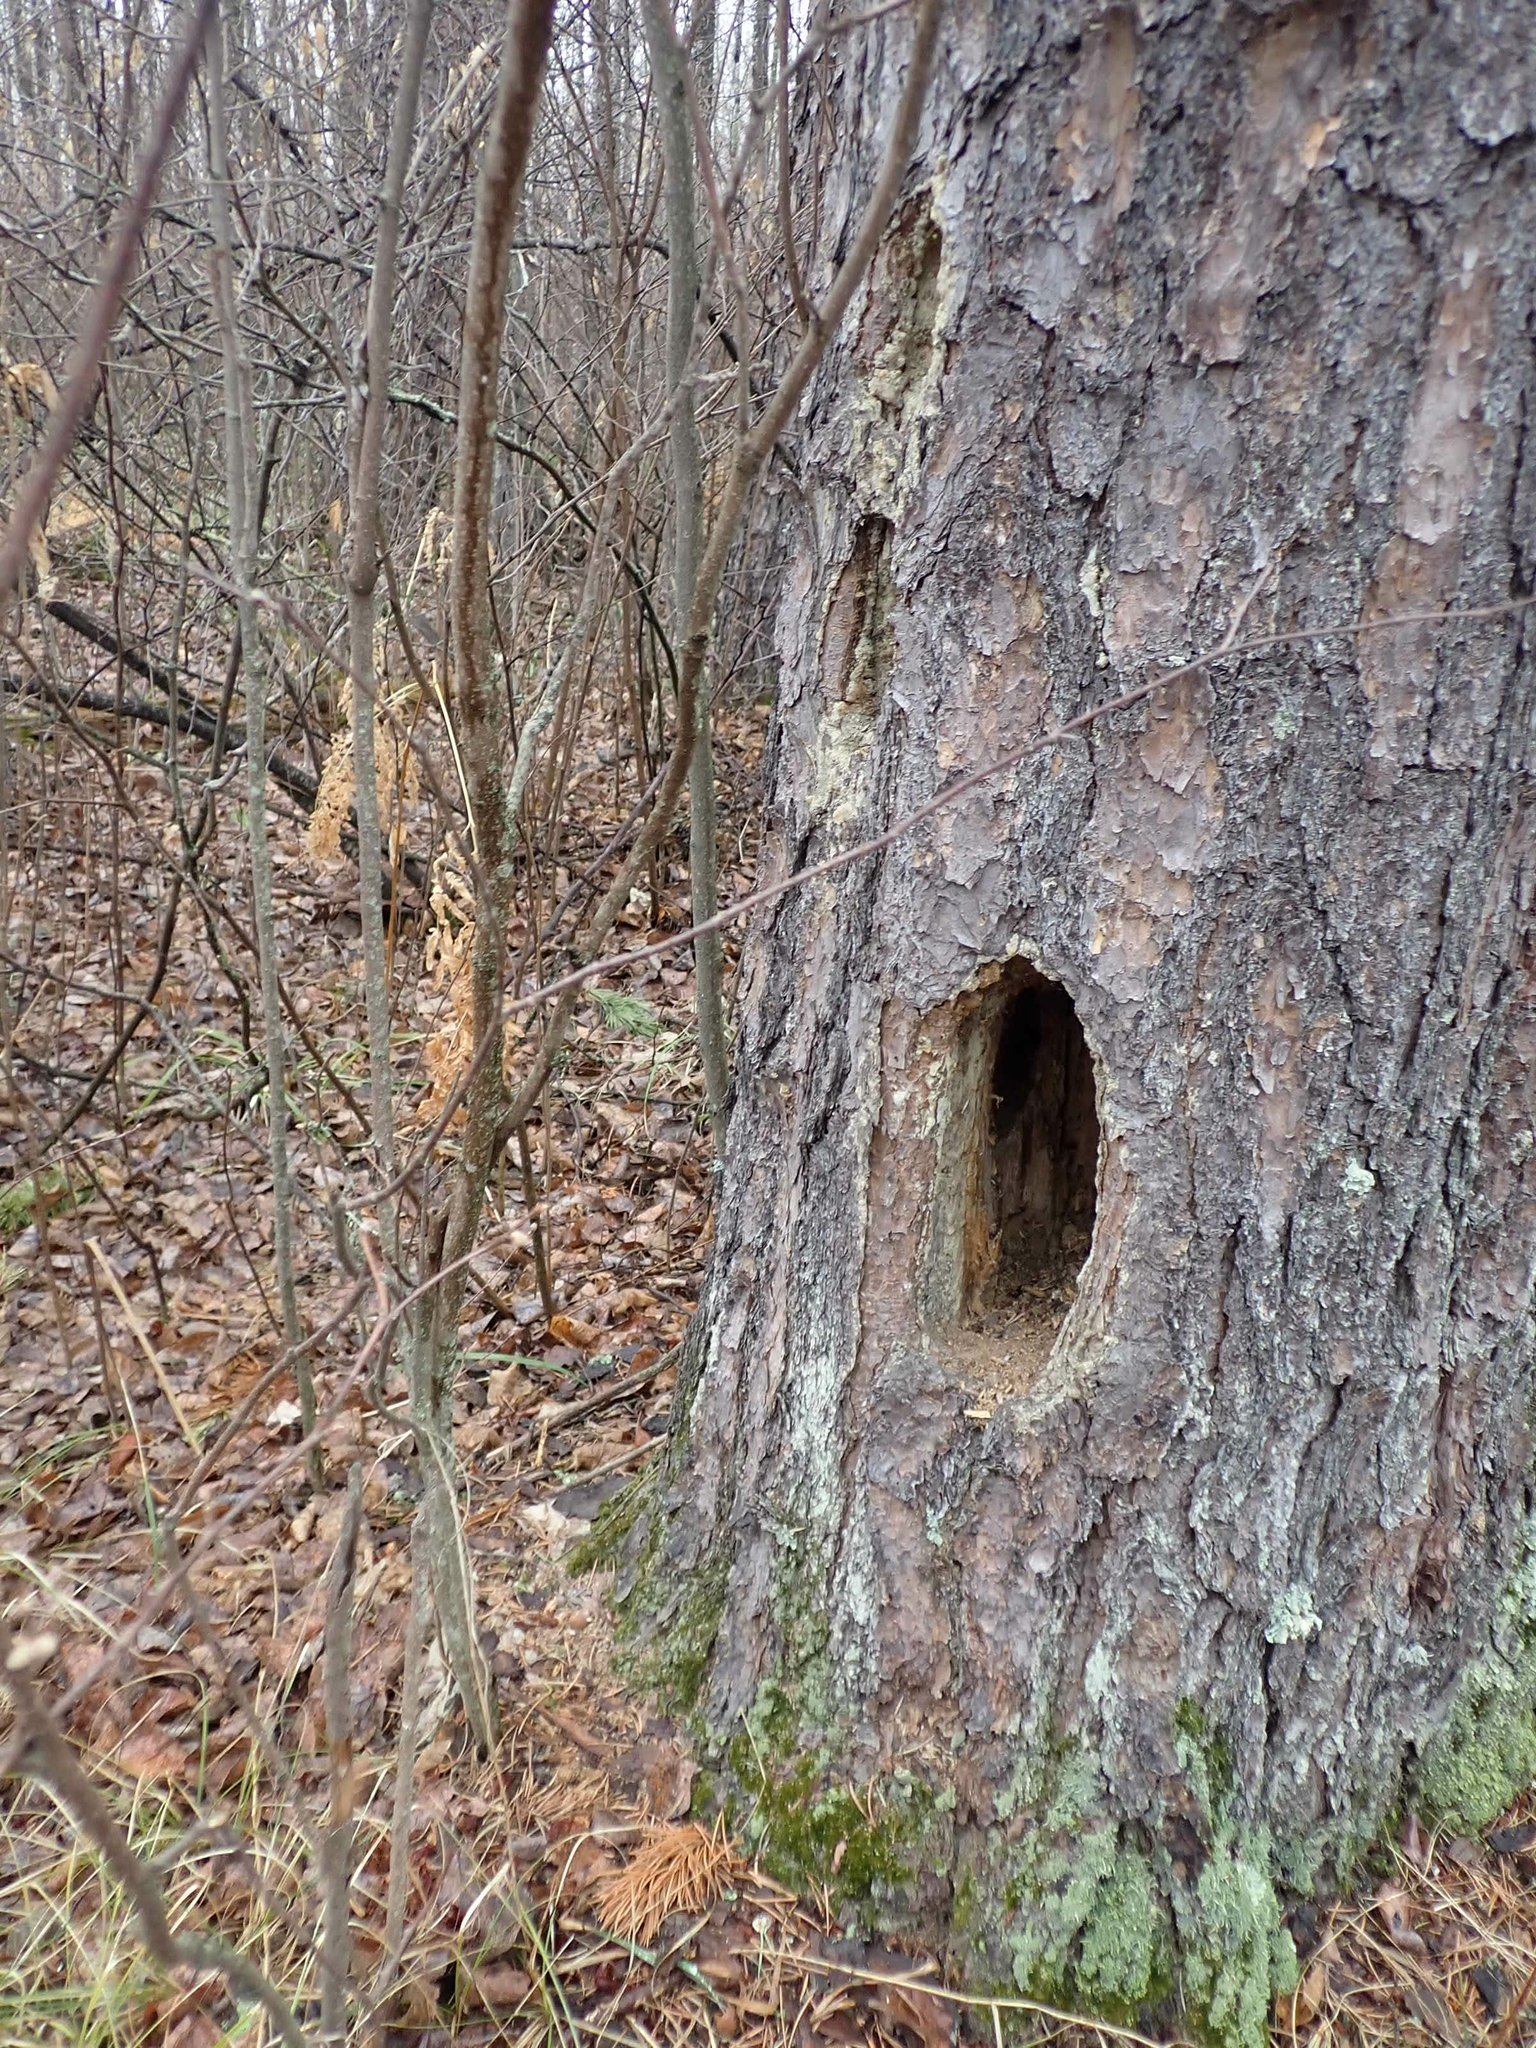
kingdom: Animalia
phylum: Chordata
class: Aves
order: Piciformes
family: Picidae
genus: Dryocopus
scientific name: Dryocopus pileatus
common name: Pileated woodpecker
